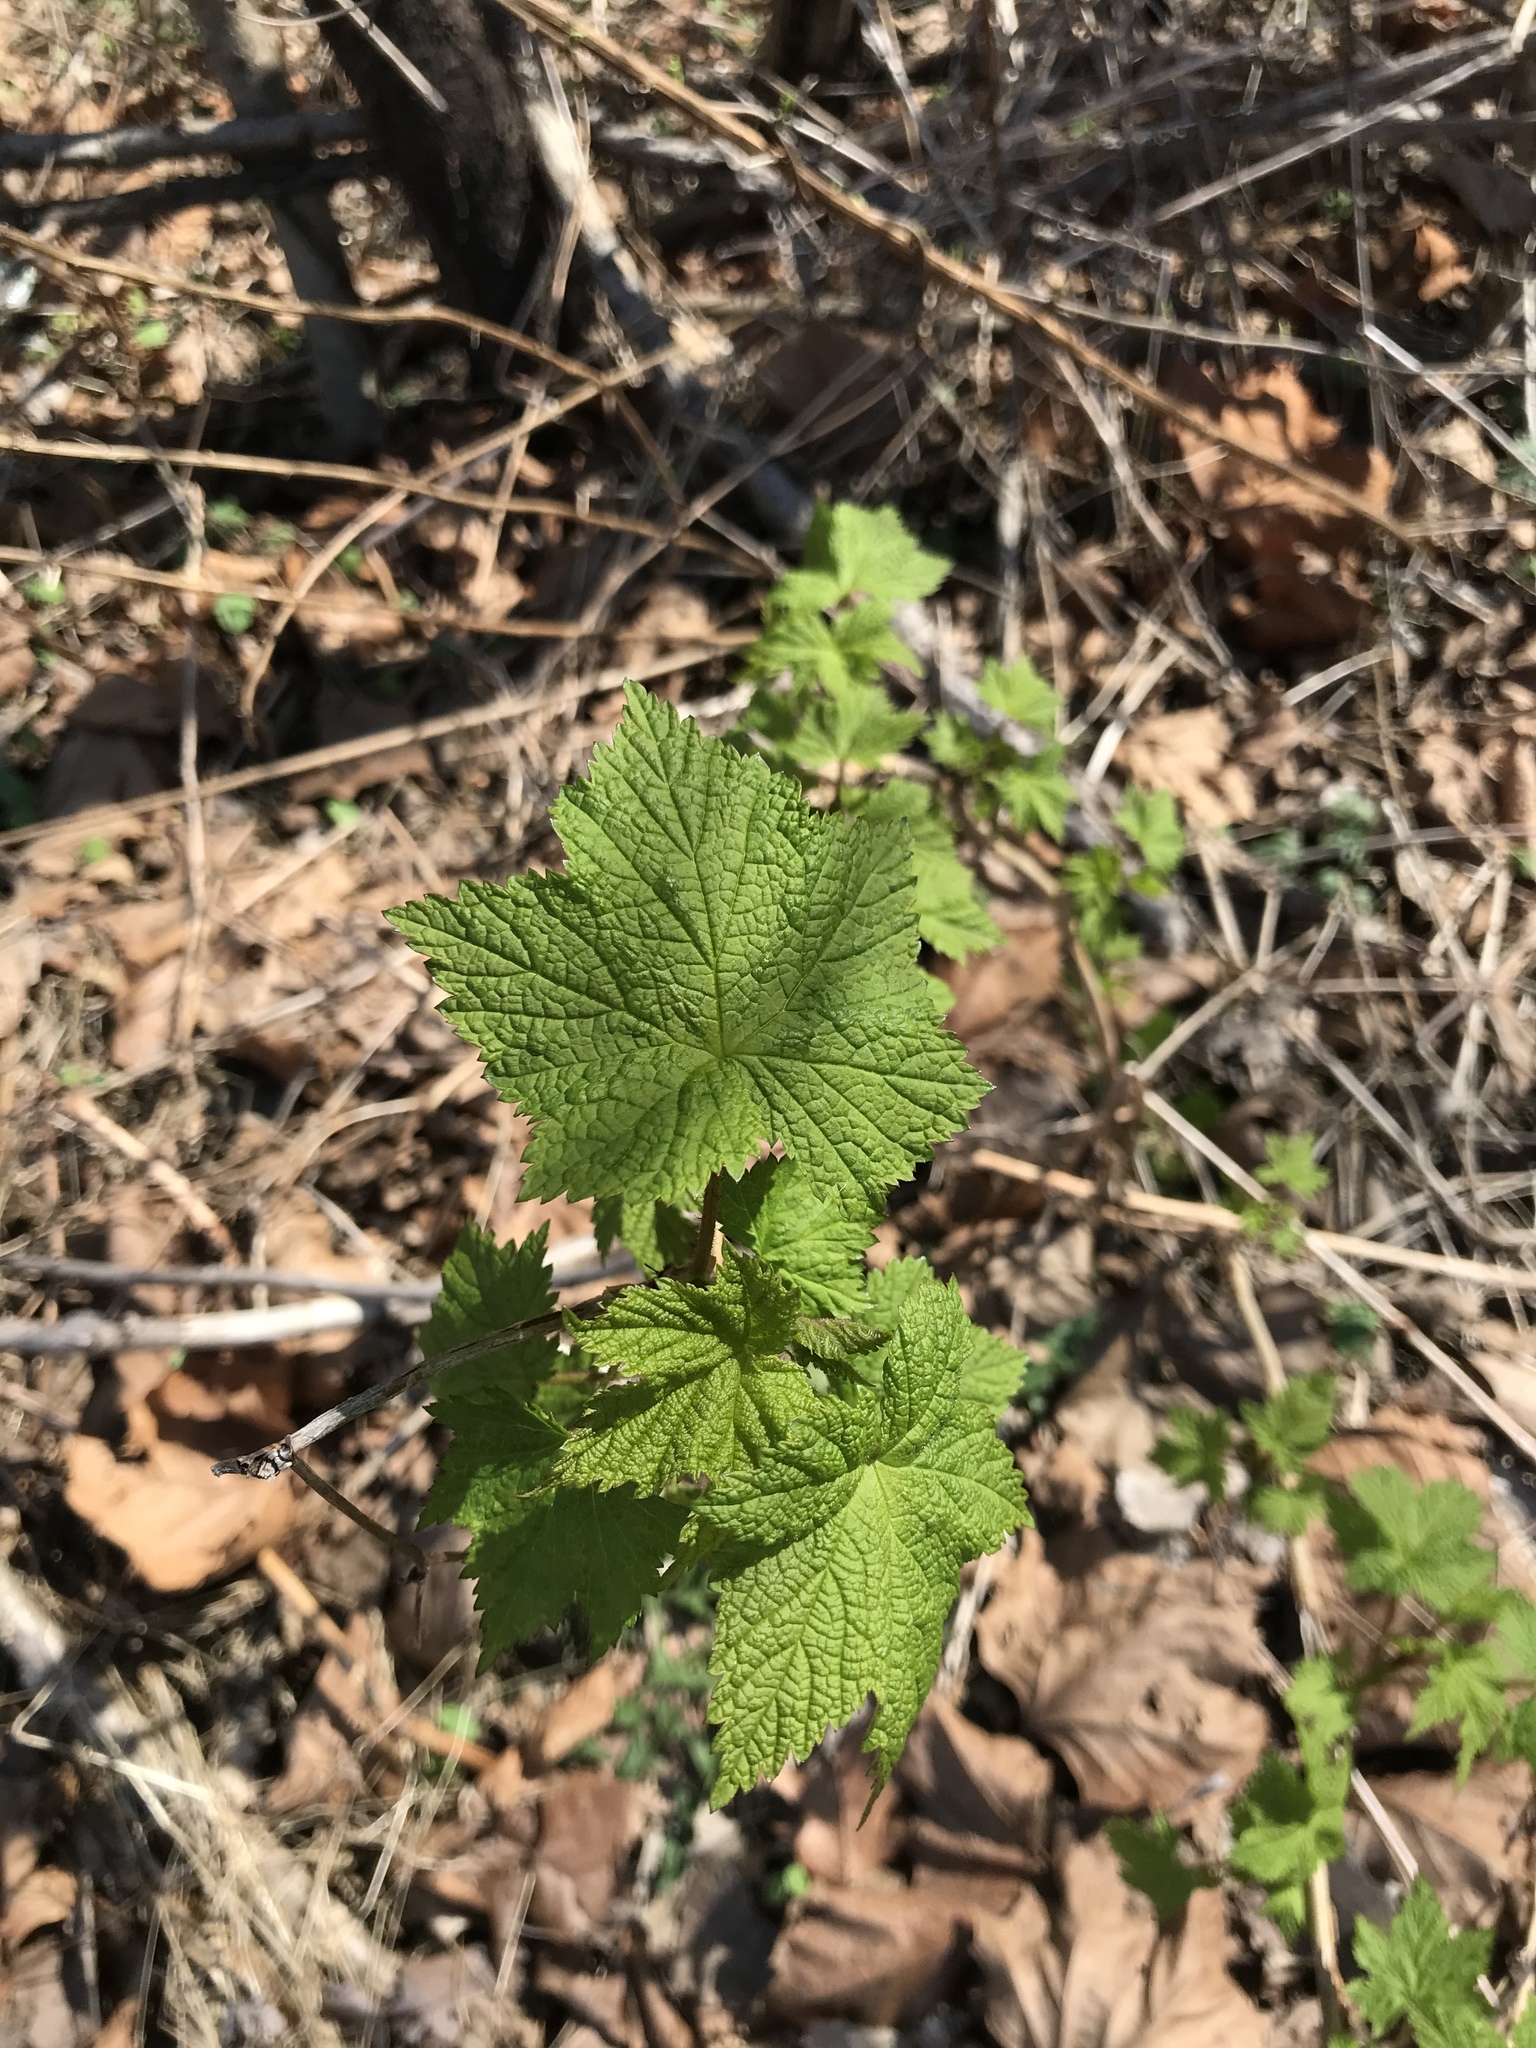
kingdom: Plantae
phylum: Tracheophyta
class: Magnoliopsida
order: Rosales
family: Rosaceae
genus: Rubus
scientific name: Rubus odoratus
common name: Purple-flowered raspberry
